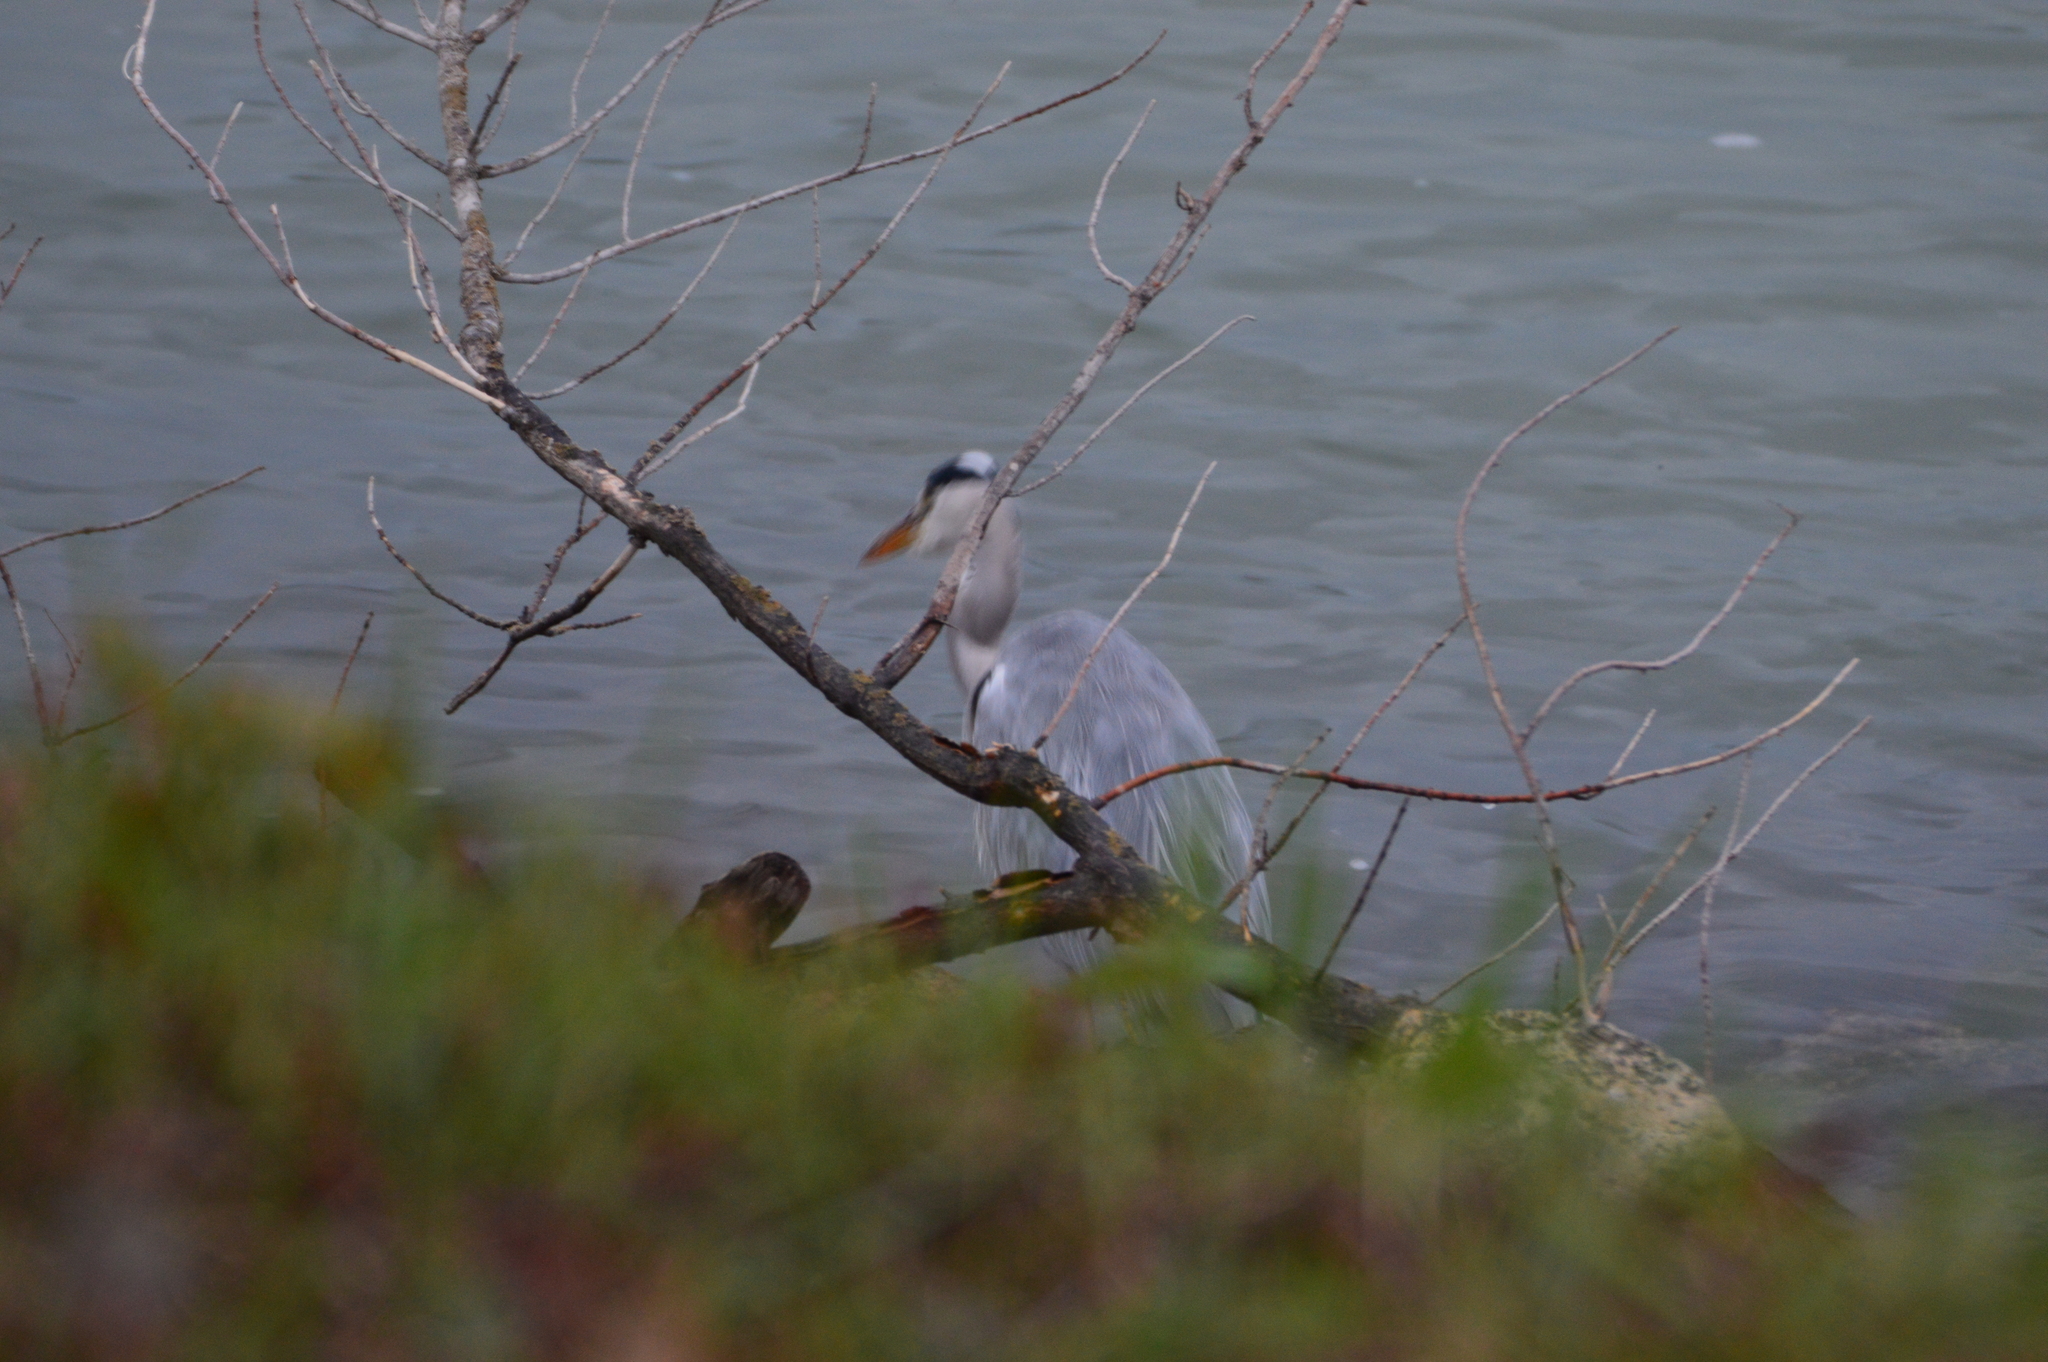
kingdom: Animalia
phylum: Chordata
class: Aves
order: Pelecaniformes
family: Ardeidae
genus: Ardea
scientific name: Ardea cinerea
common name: Grey heron
